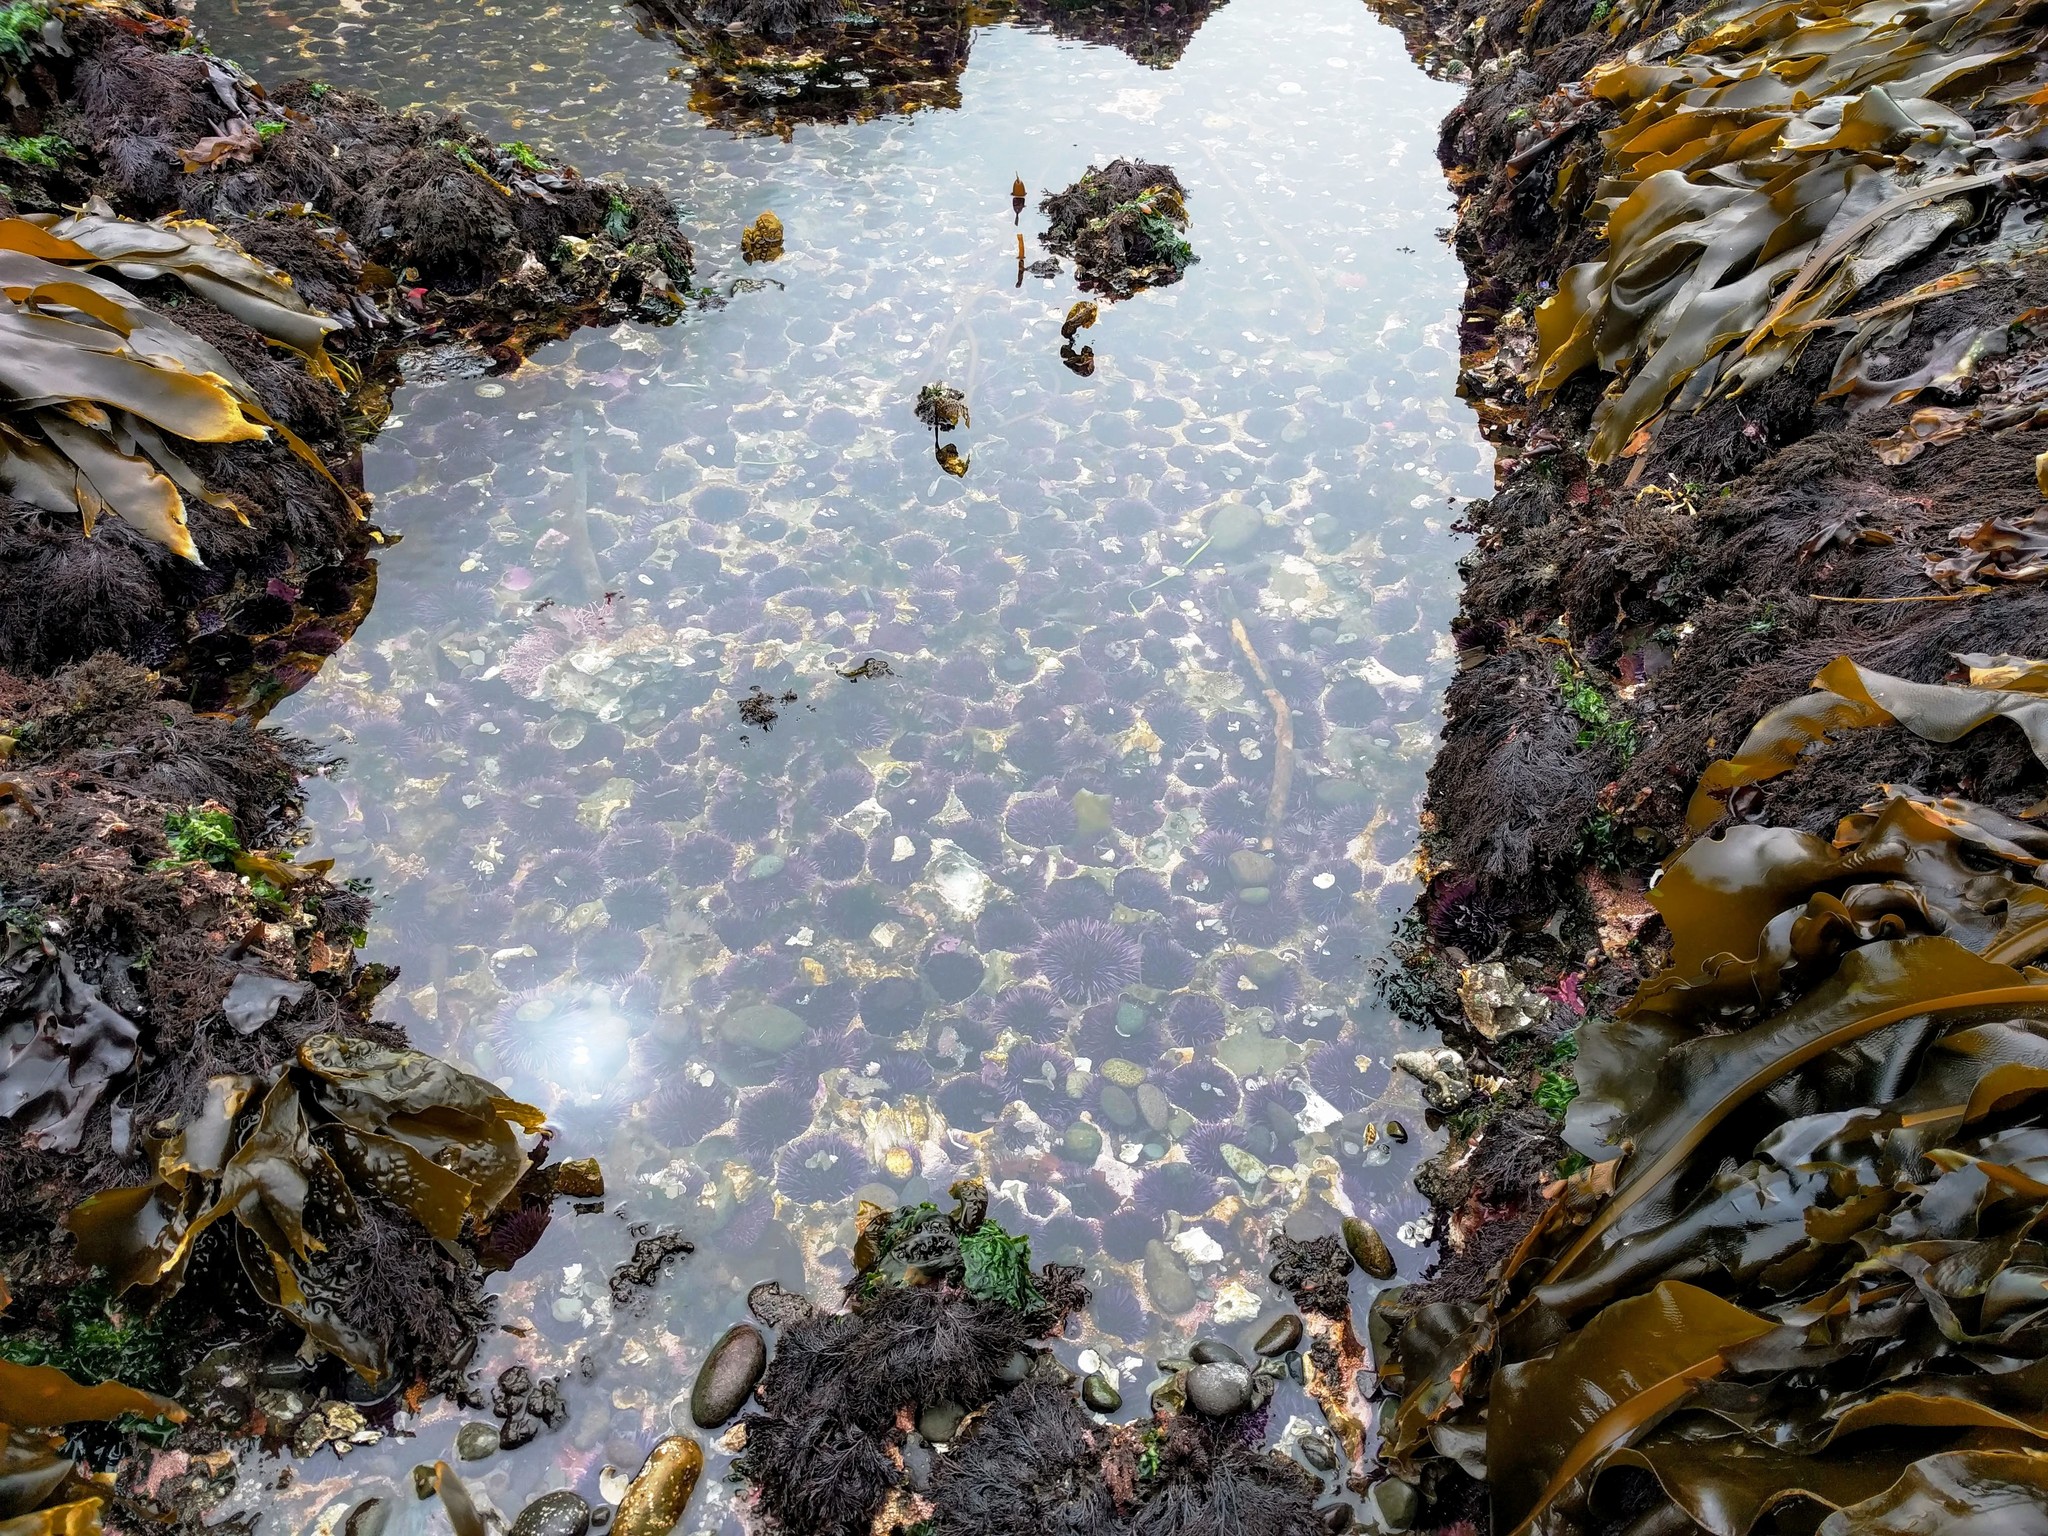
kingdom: Animalia
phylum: Echinodermata
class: Echinoidea
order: Camarodonta
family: Strongylocentrotidae
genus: Strongylocentrotus
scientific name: Strongylocentrotus purpuratus
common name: Purple sea urchin
